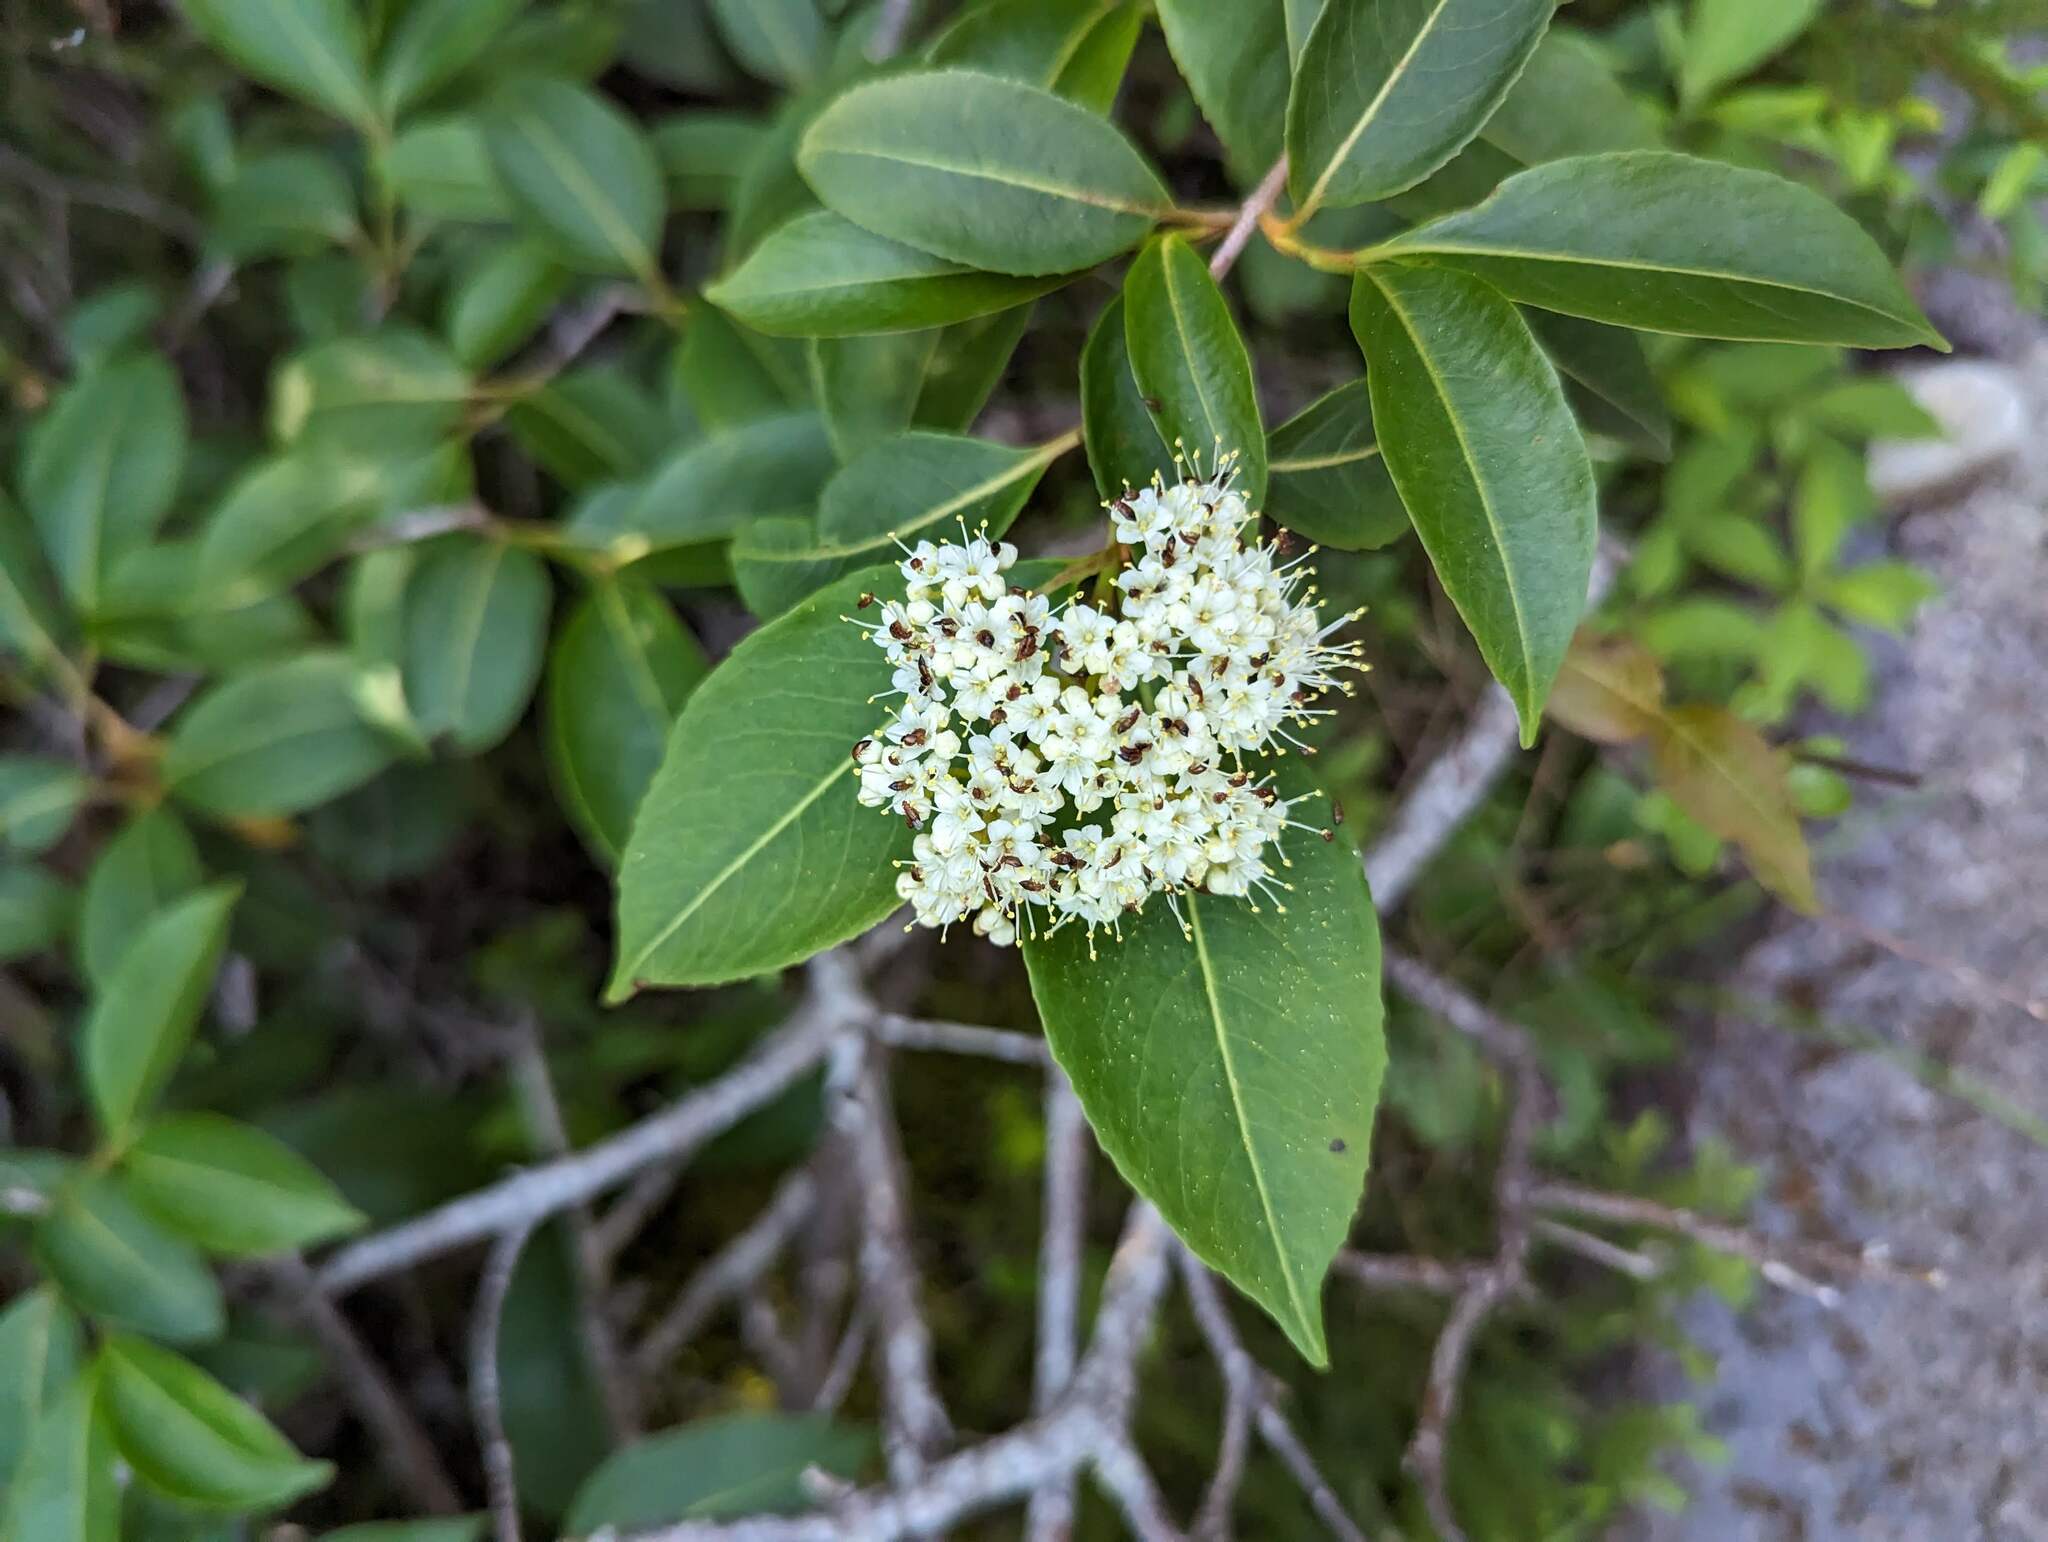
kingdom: Plantae
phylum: Tracheophyta
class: Magnoliopsida
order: Dipsacales
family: Viburnaceae
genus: Viburnum
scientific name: Viburnum cassinoides
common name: Swamp haw
